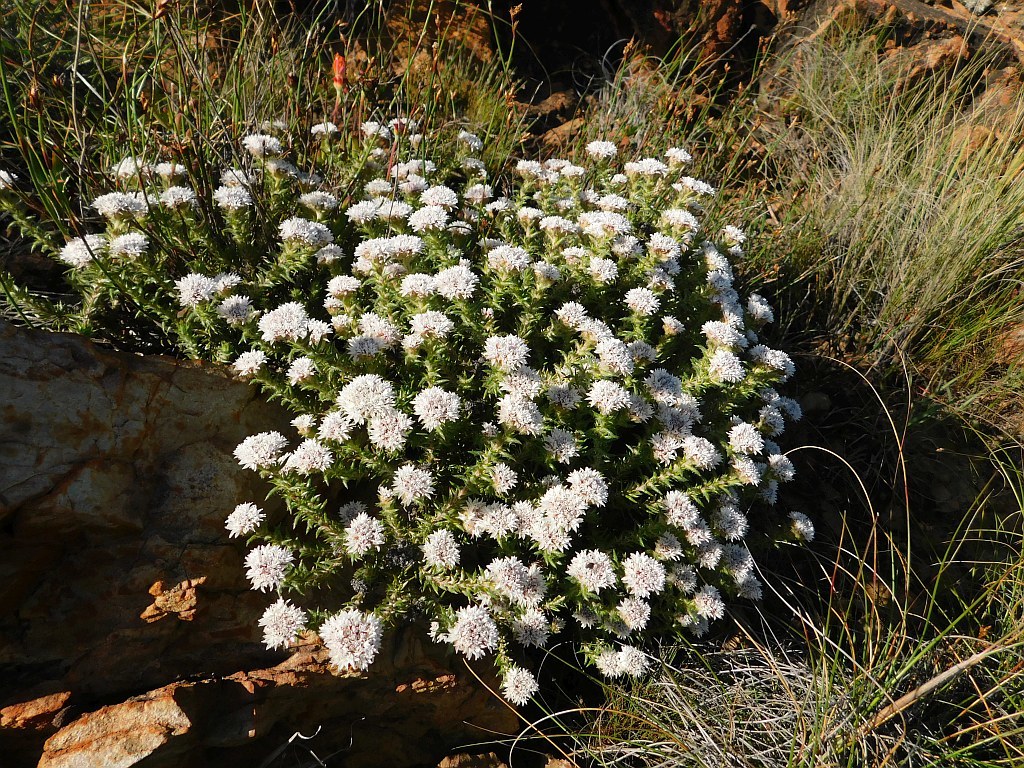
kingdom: Plantae
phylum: Tracheophyta
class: Magnoliopsida
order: Asterales
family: Asteraceae
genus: Metalasia
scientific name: Metalasia inversa
